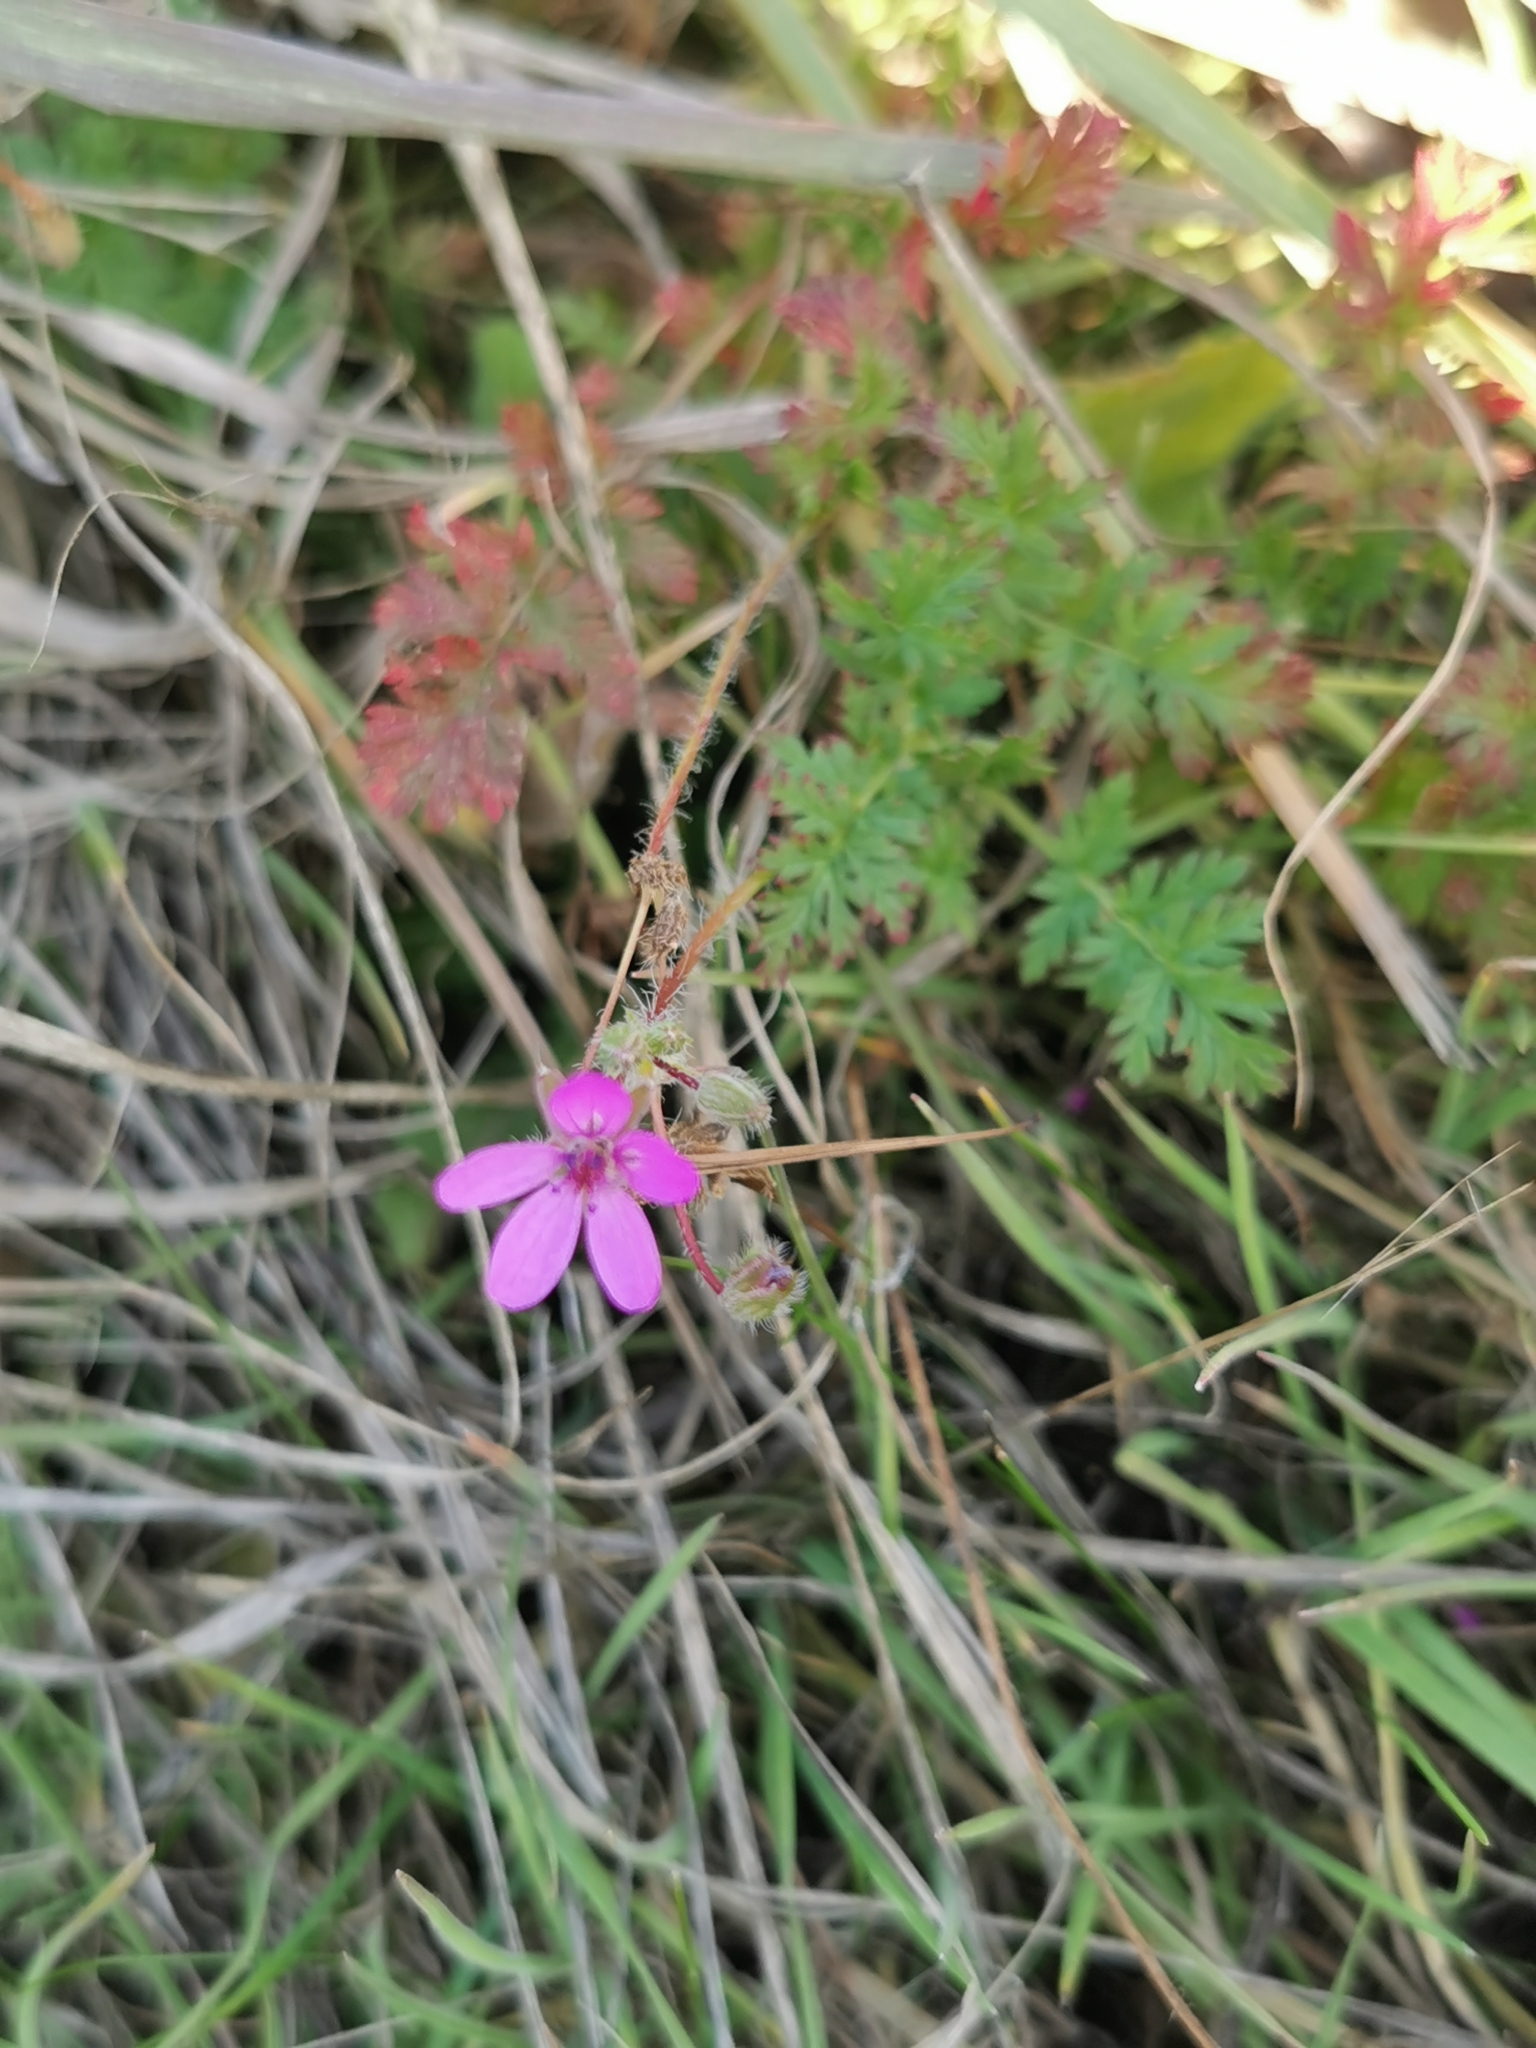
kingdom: Plantae
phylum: Tracheophyta
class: Magnoliopsida
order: Geraniales
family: Geraniaceae
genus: Erodium
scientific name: Erodium cicutarium
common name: Common stork's-bill
